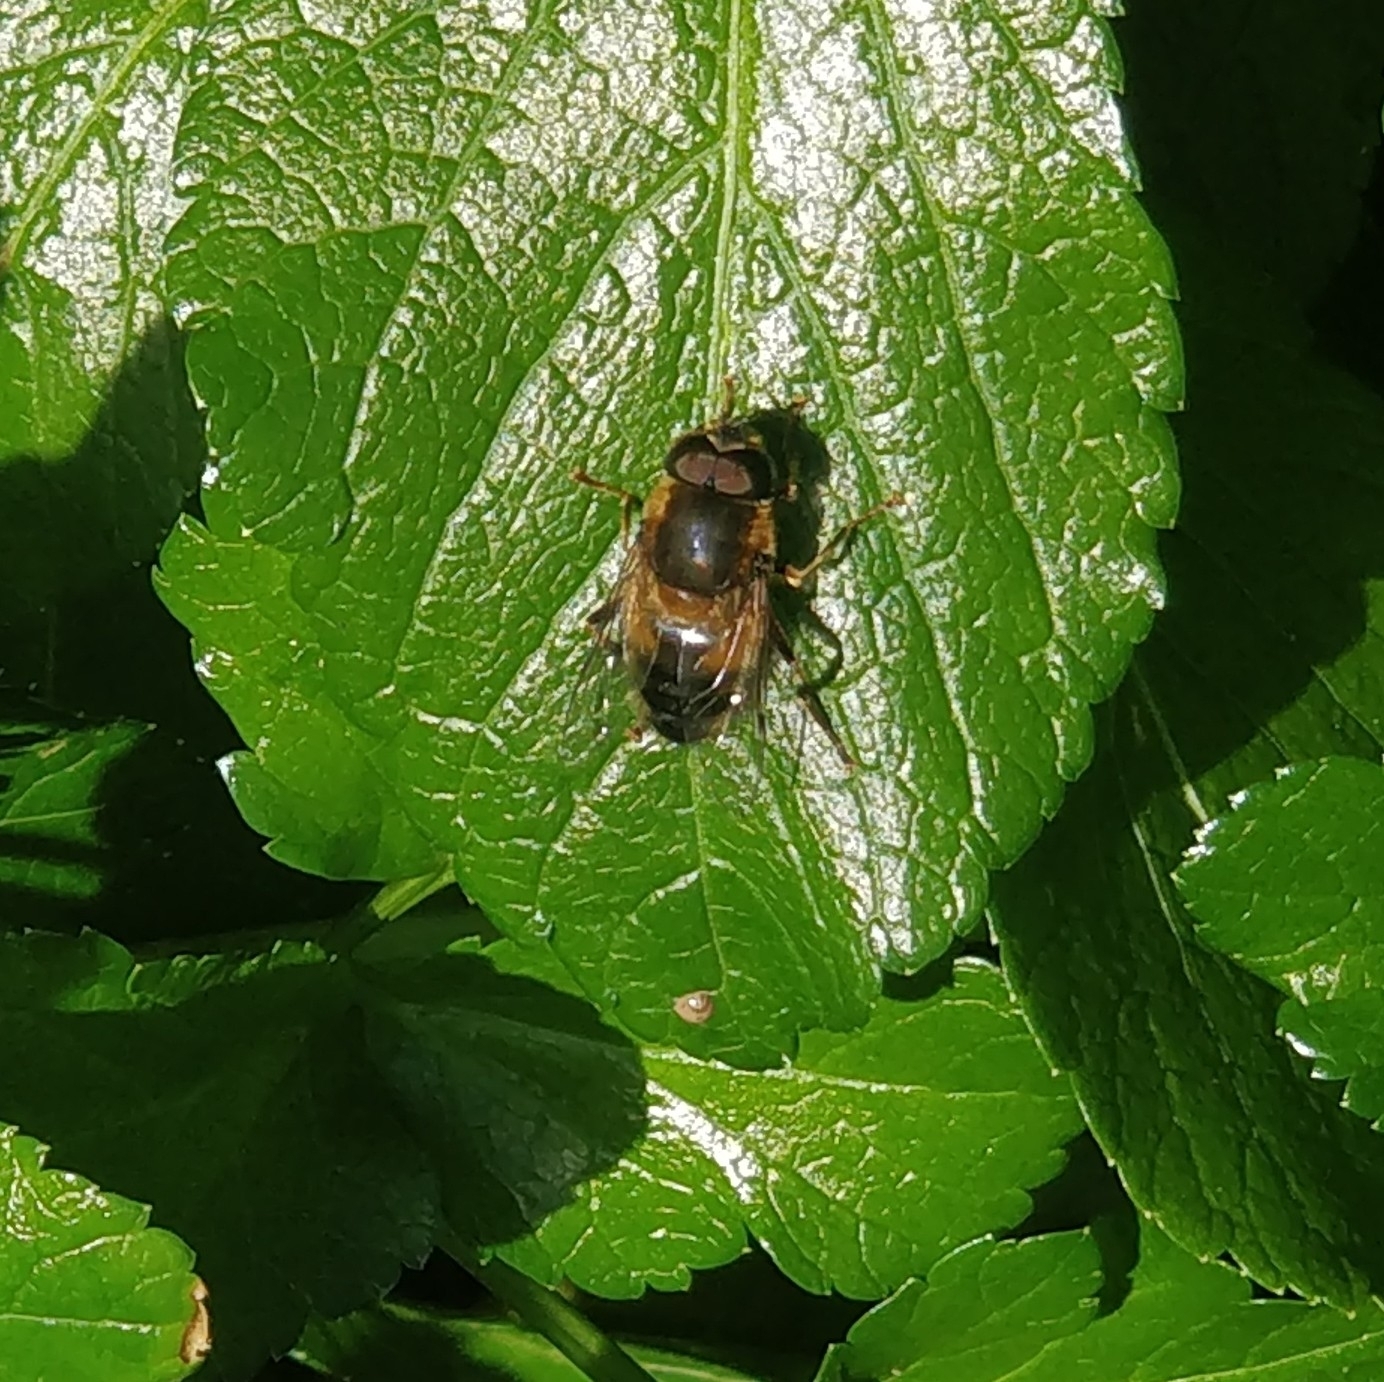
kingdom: Animalia
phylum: Arthropoda
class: Insecta
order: Diptera
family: Syrphidae
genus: Eristalis
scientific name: Eristalis pertinax
